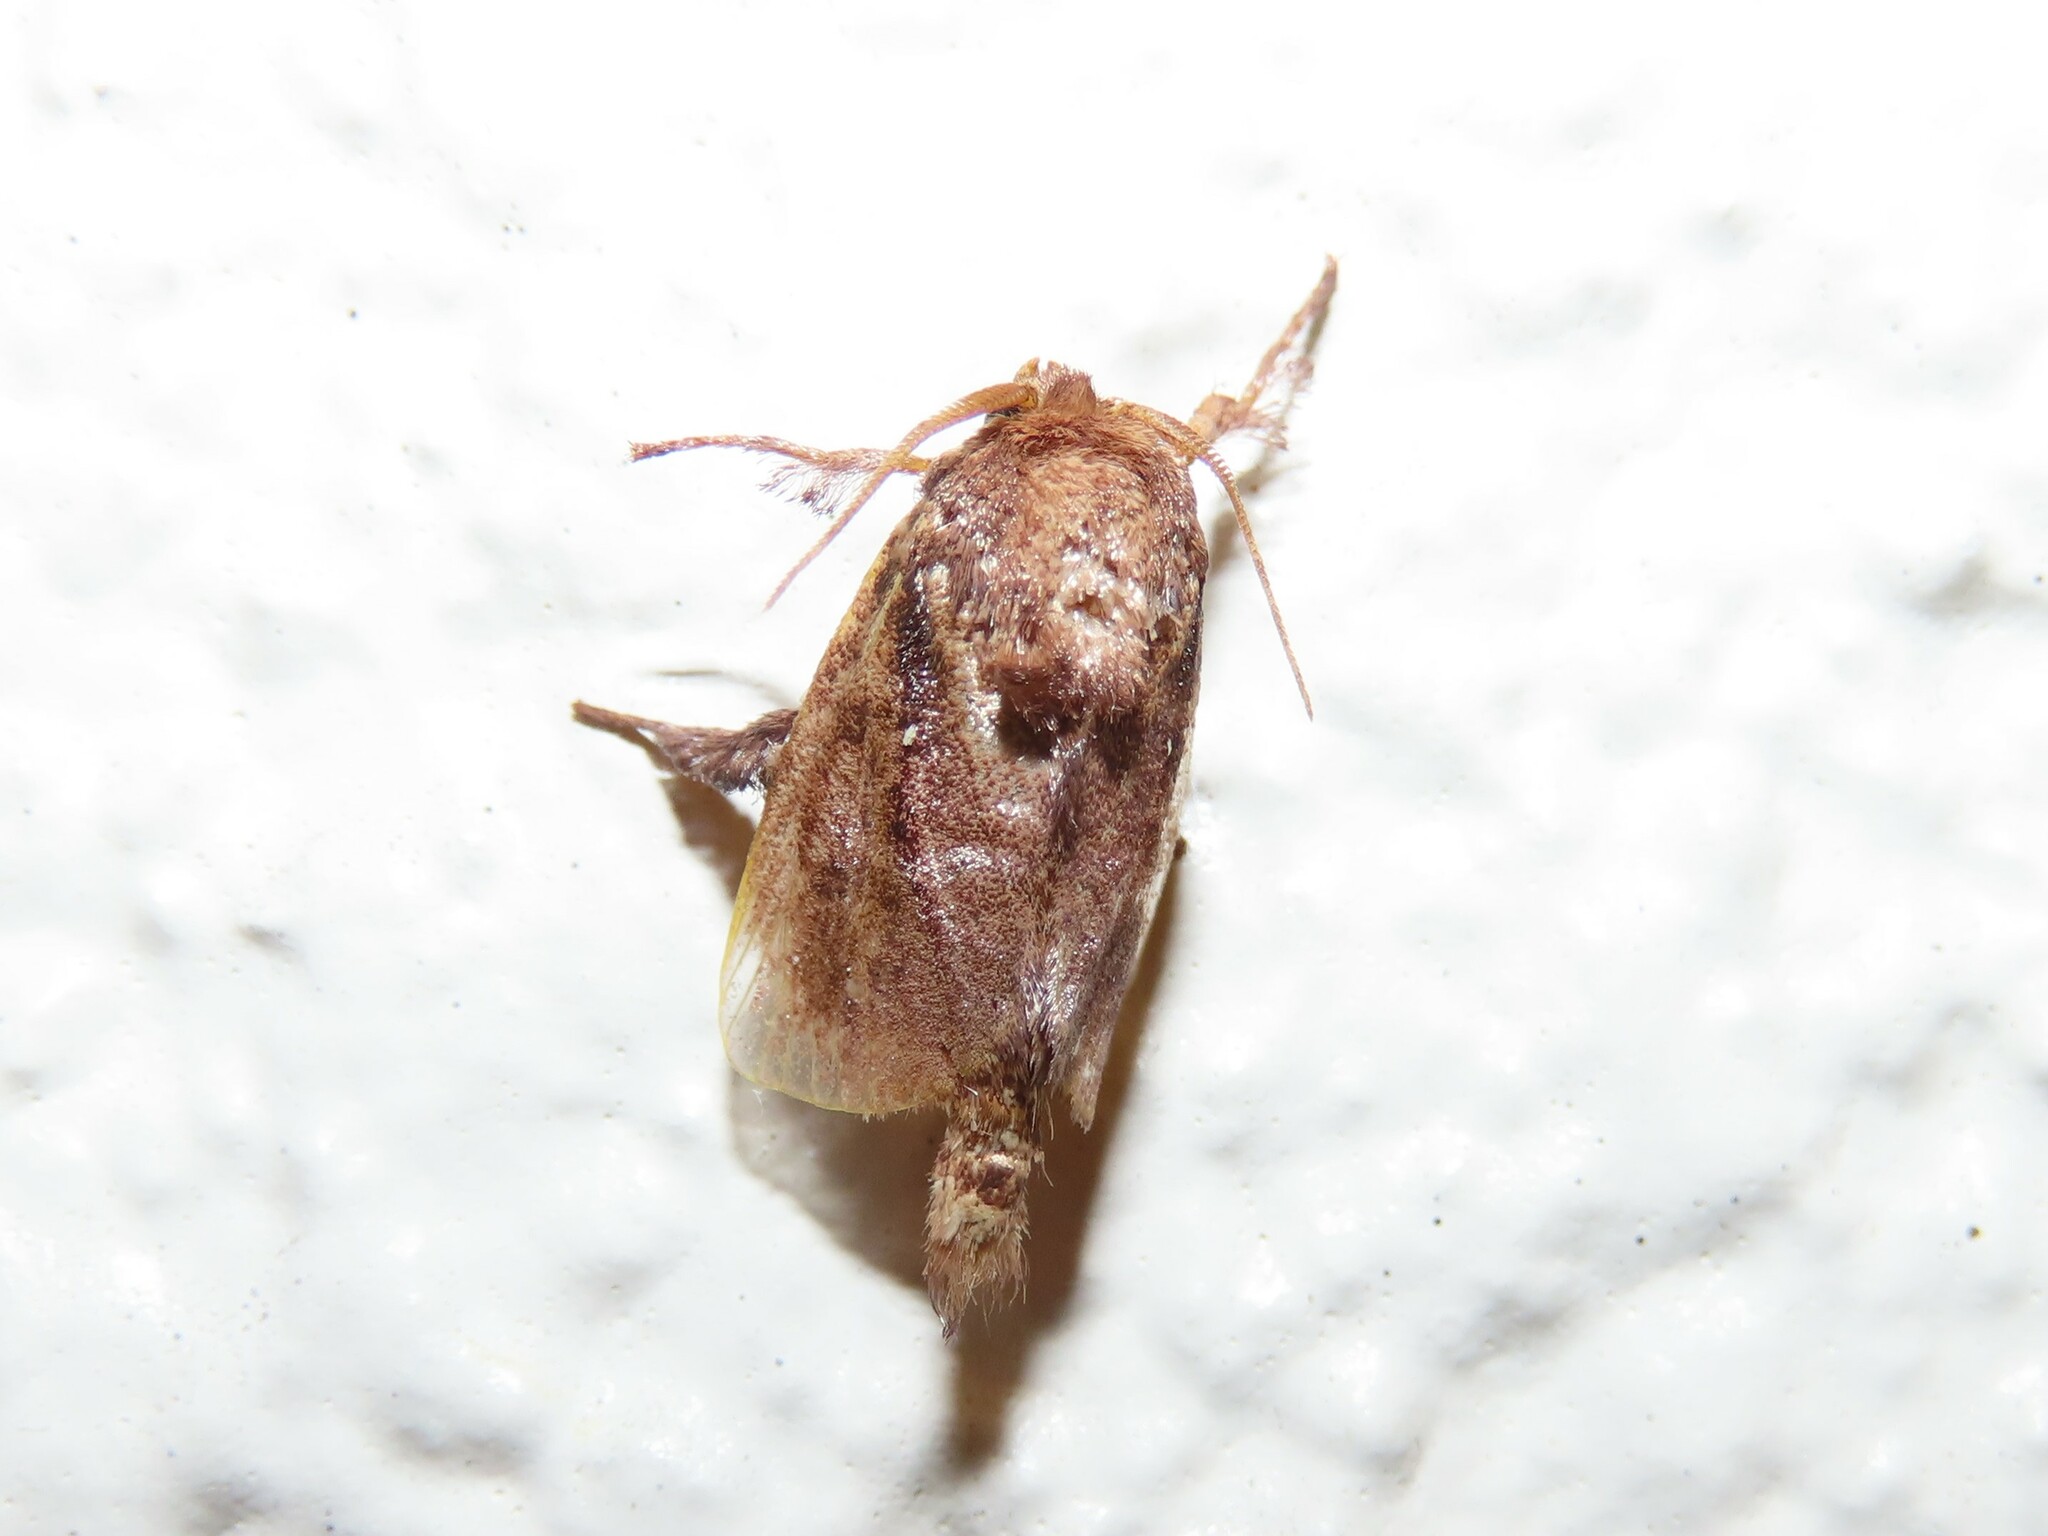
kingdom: Animalia
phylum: Arthropoda
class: Insecta
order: Lepidoptera
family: Limacodidae
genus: Acharia
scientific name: Acharia stimulea
